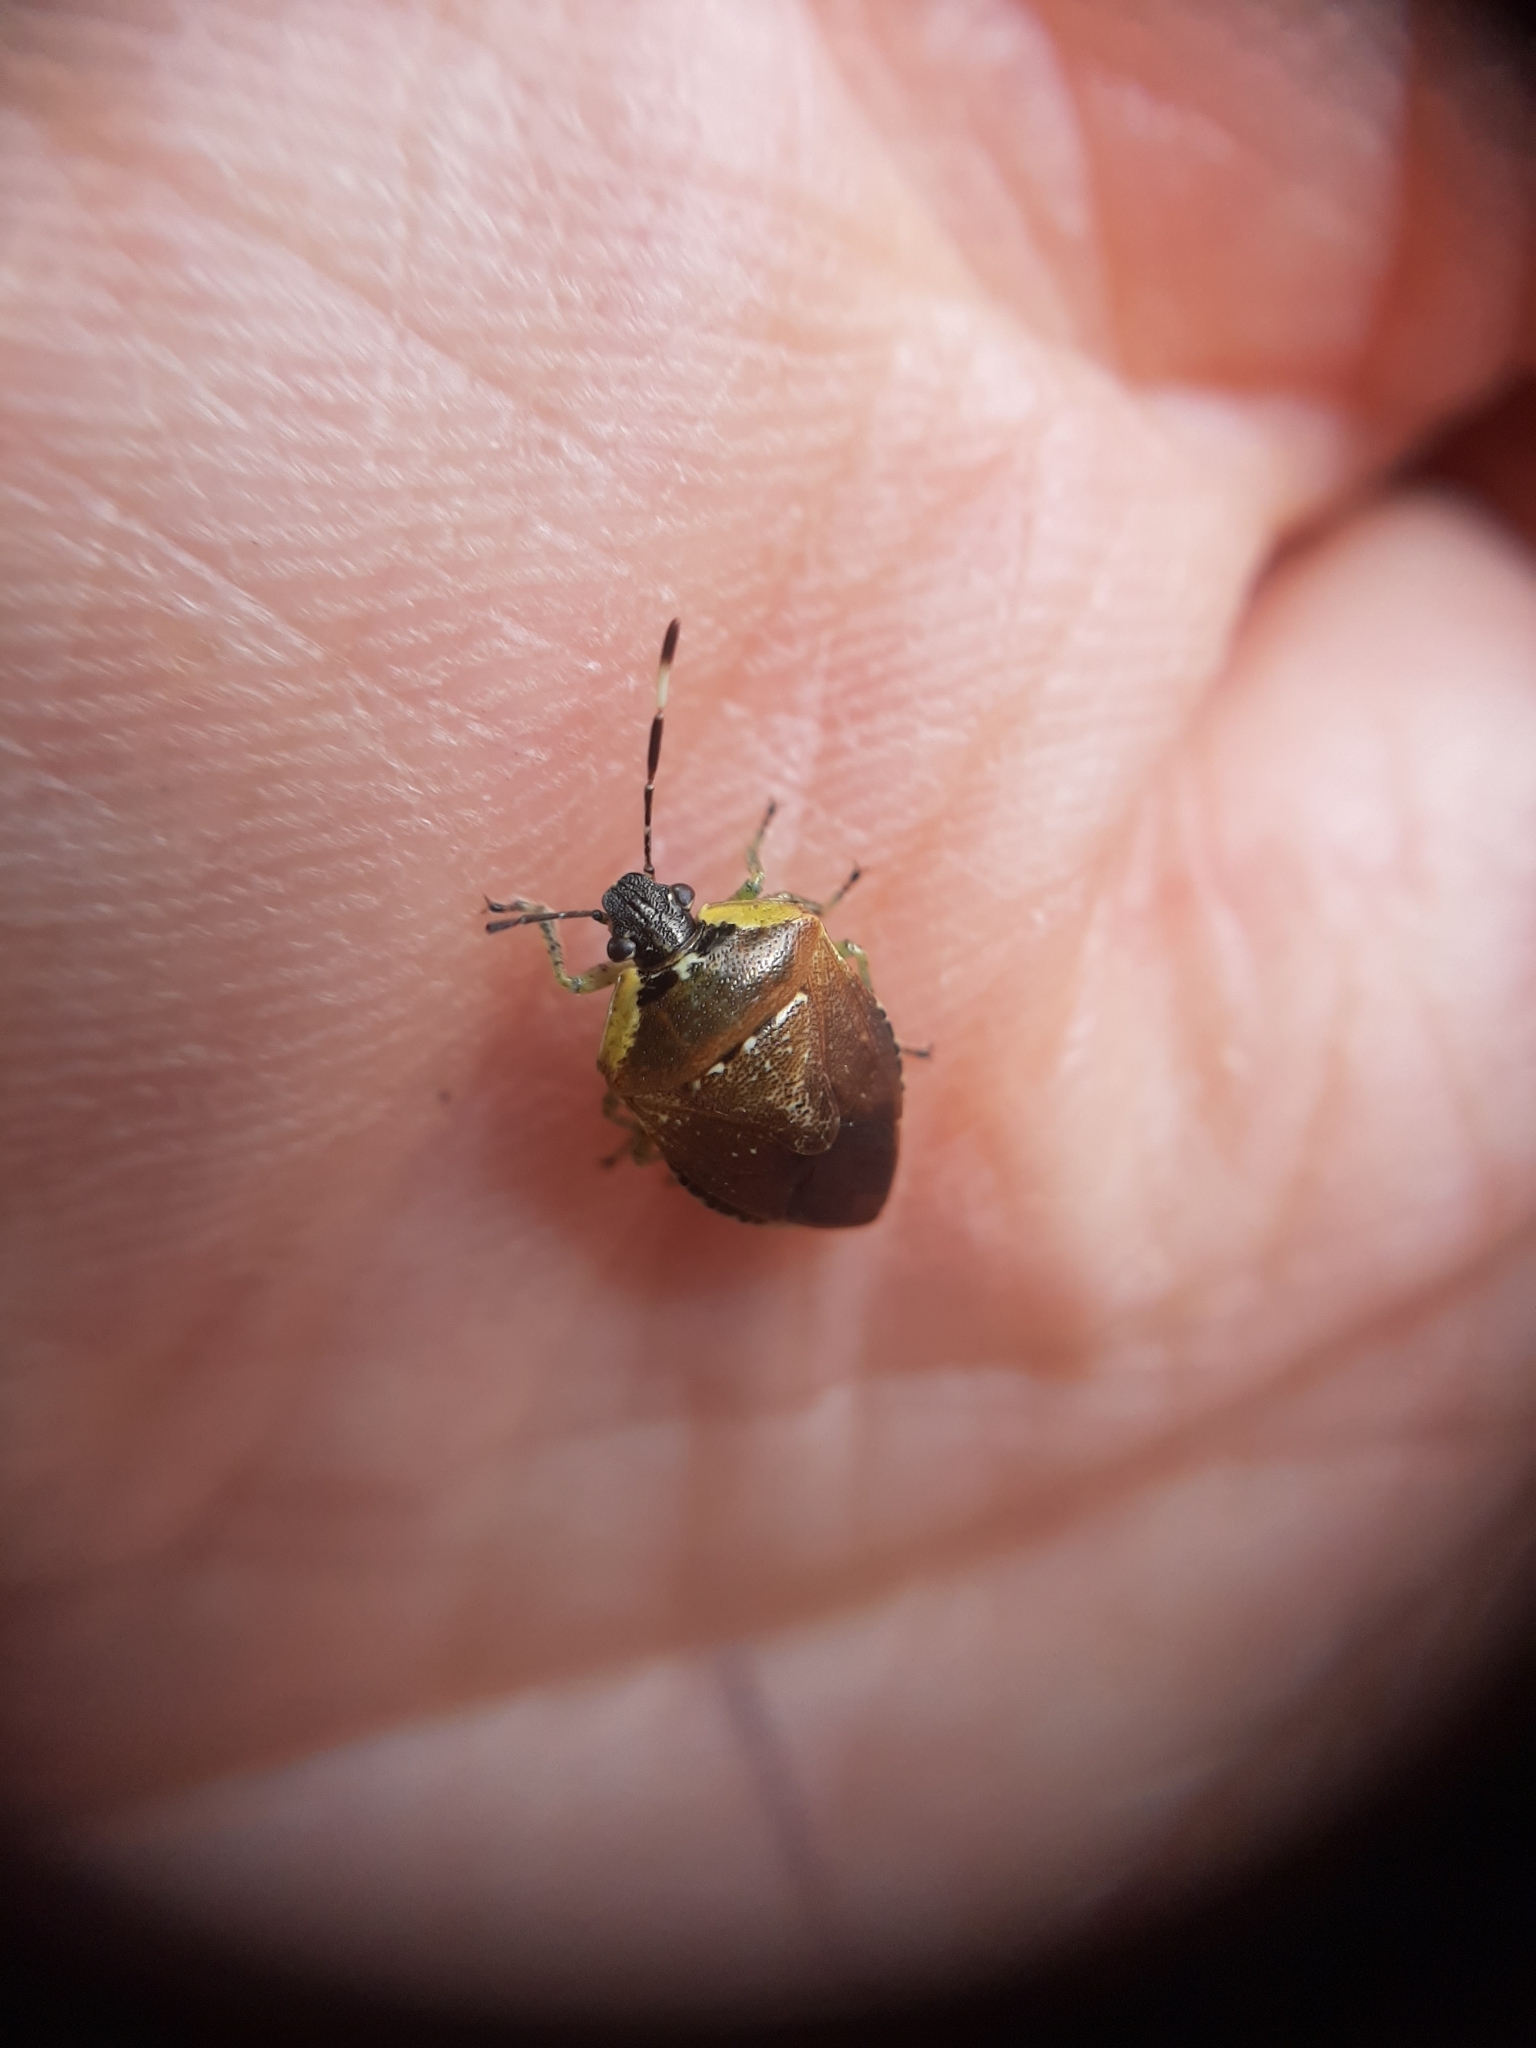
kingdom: Animalia
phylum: Arthropoda
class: Insecta
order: Hemiptera
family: Pentatomidae
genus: Monteithiella
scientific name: Monteithiella
